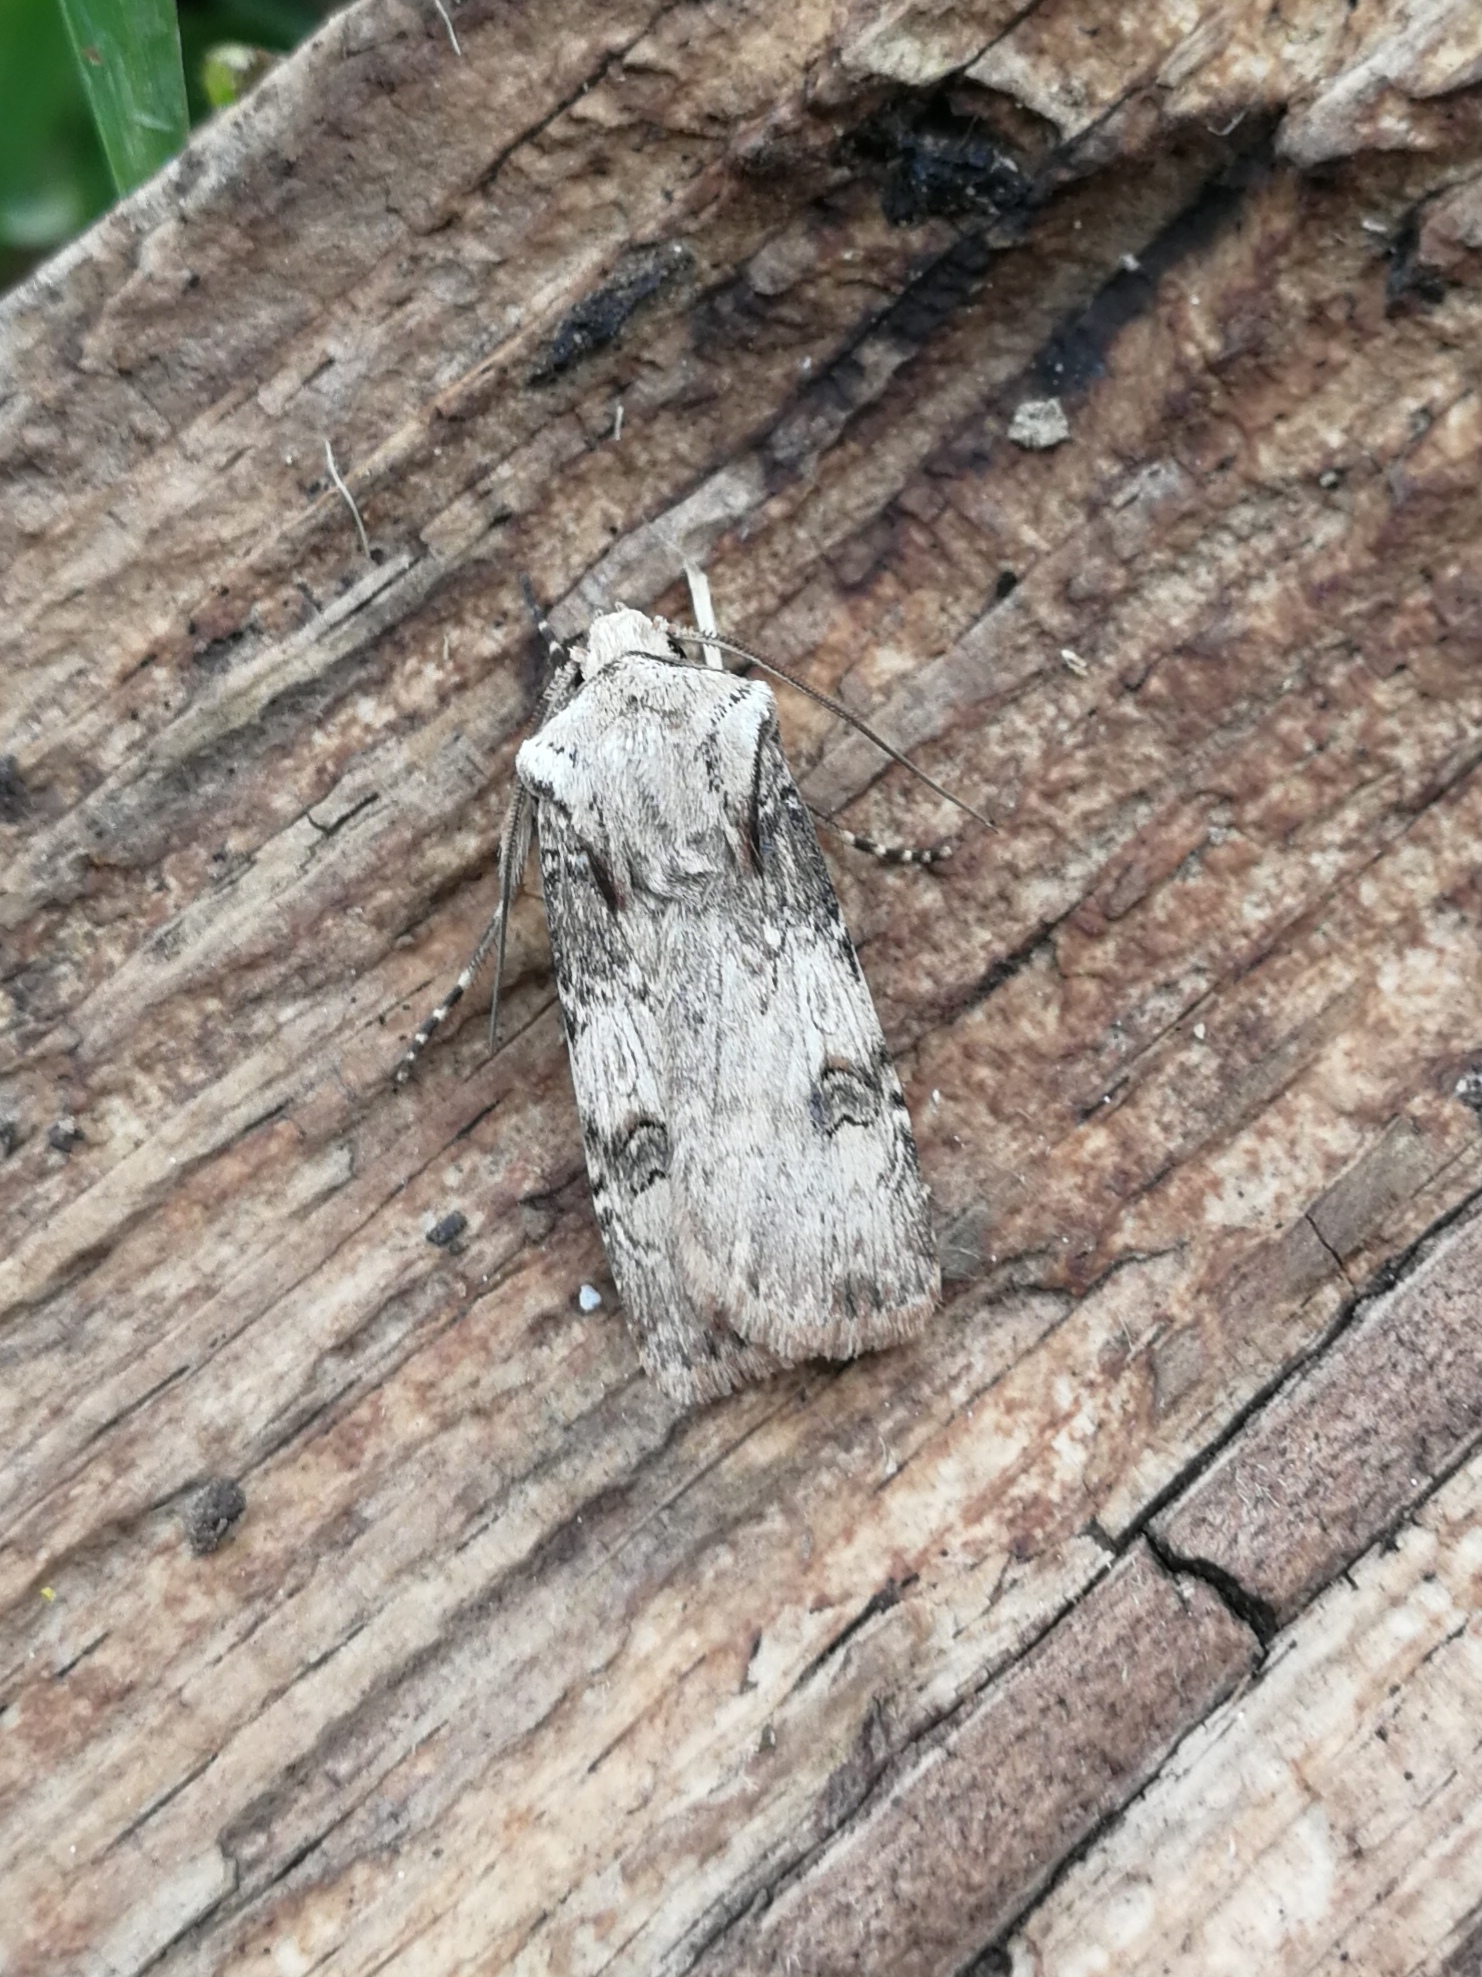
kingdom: Animalia
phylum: Arthropoda
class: Insecta
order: Lepidoptera
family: Noctuidae
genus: Agrotis
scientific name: Agrotis puta
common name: Shuttle-shaped dart
